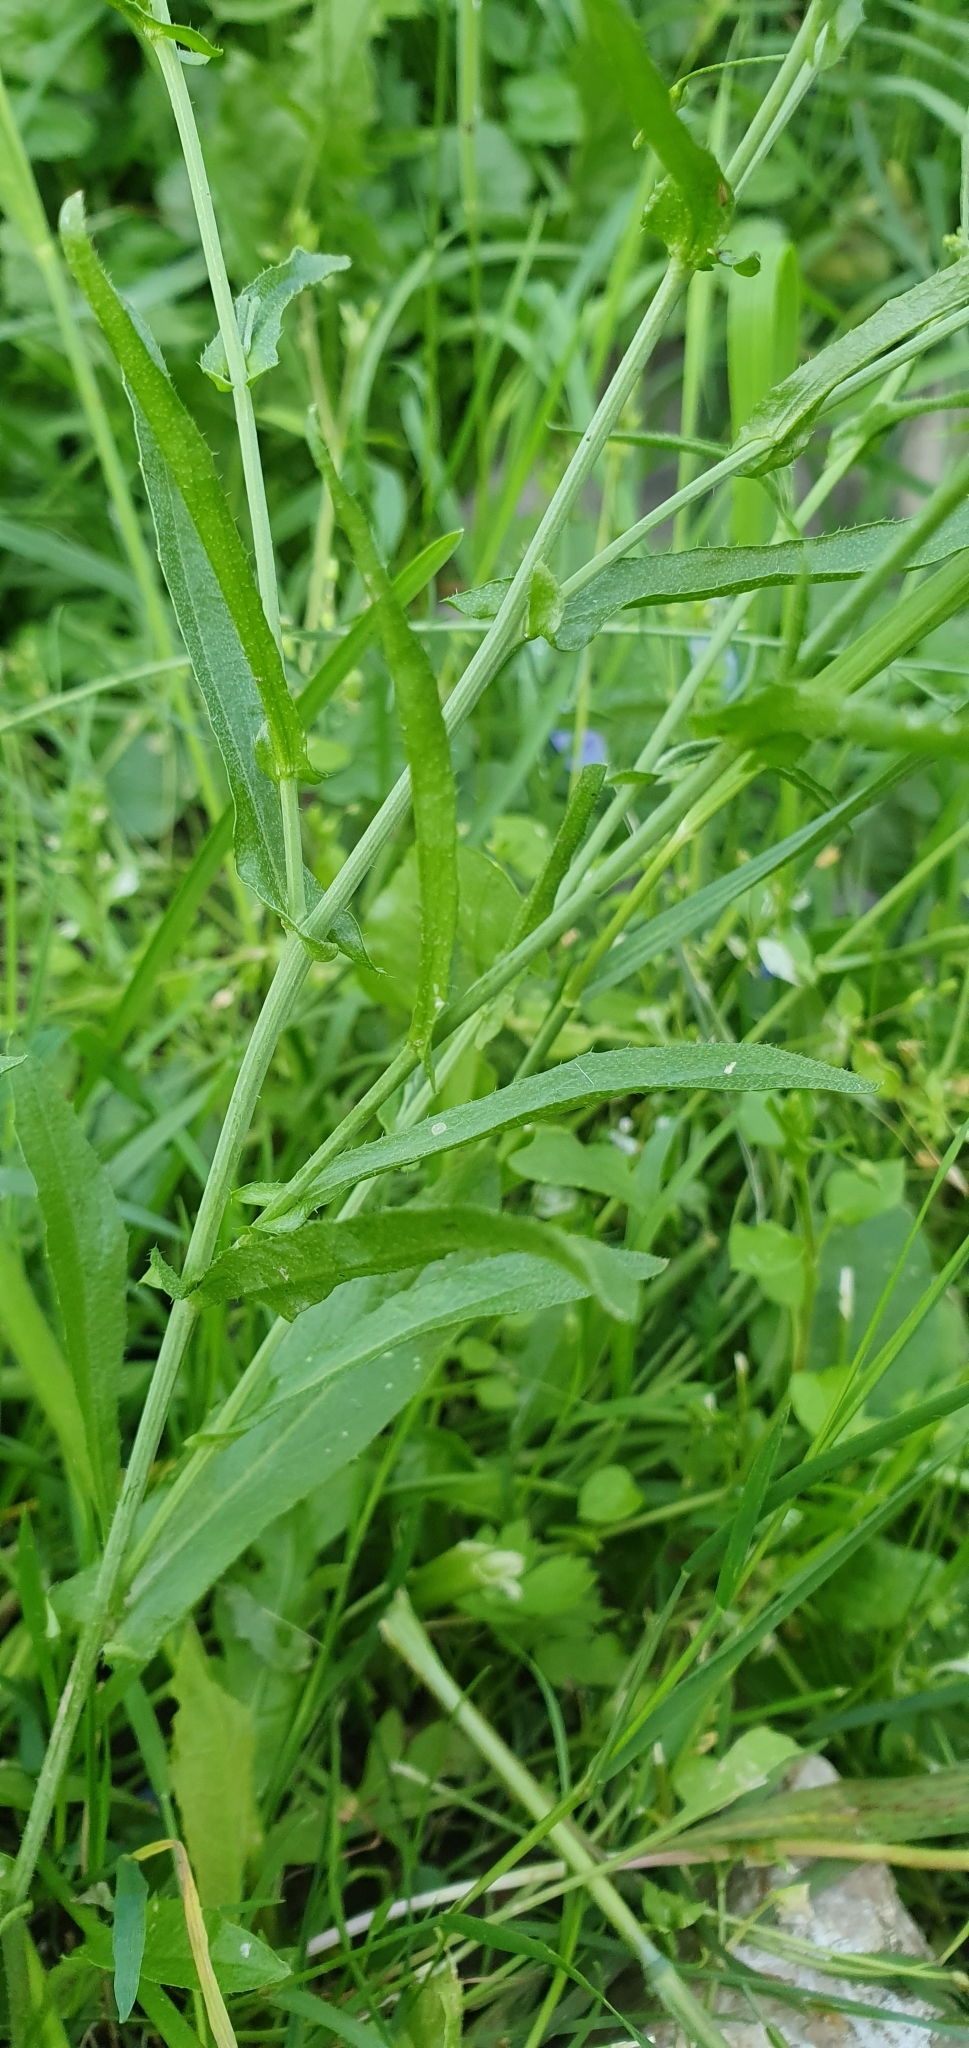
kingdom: Plantae
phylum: Tracheophyta
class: Magnoliopsida
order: Brassicales
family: Brassicaceae
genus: Capsella
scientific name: Capsella bursa-pastoris
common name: Shepherd's purse
